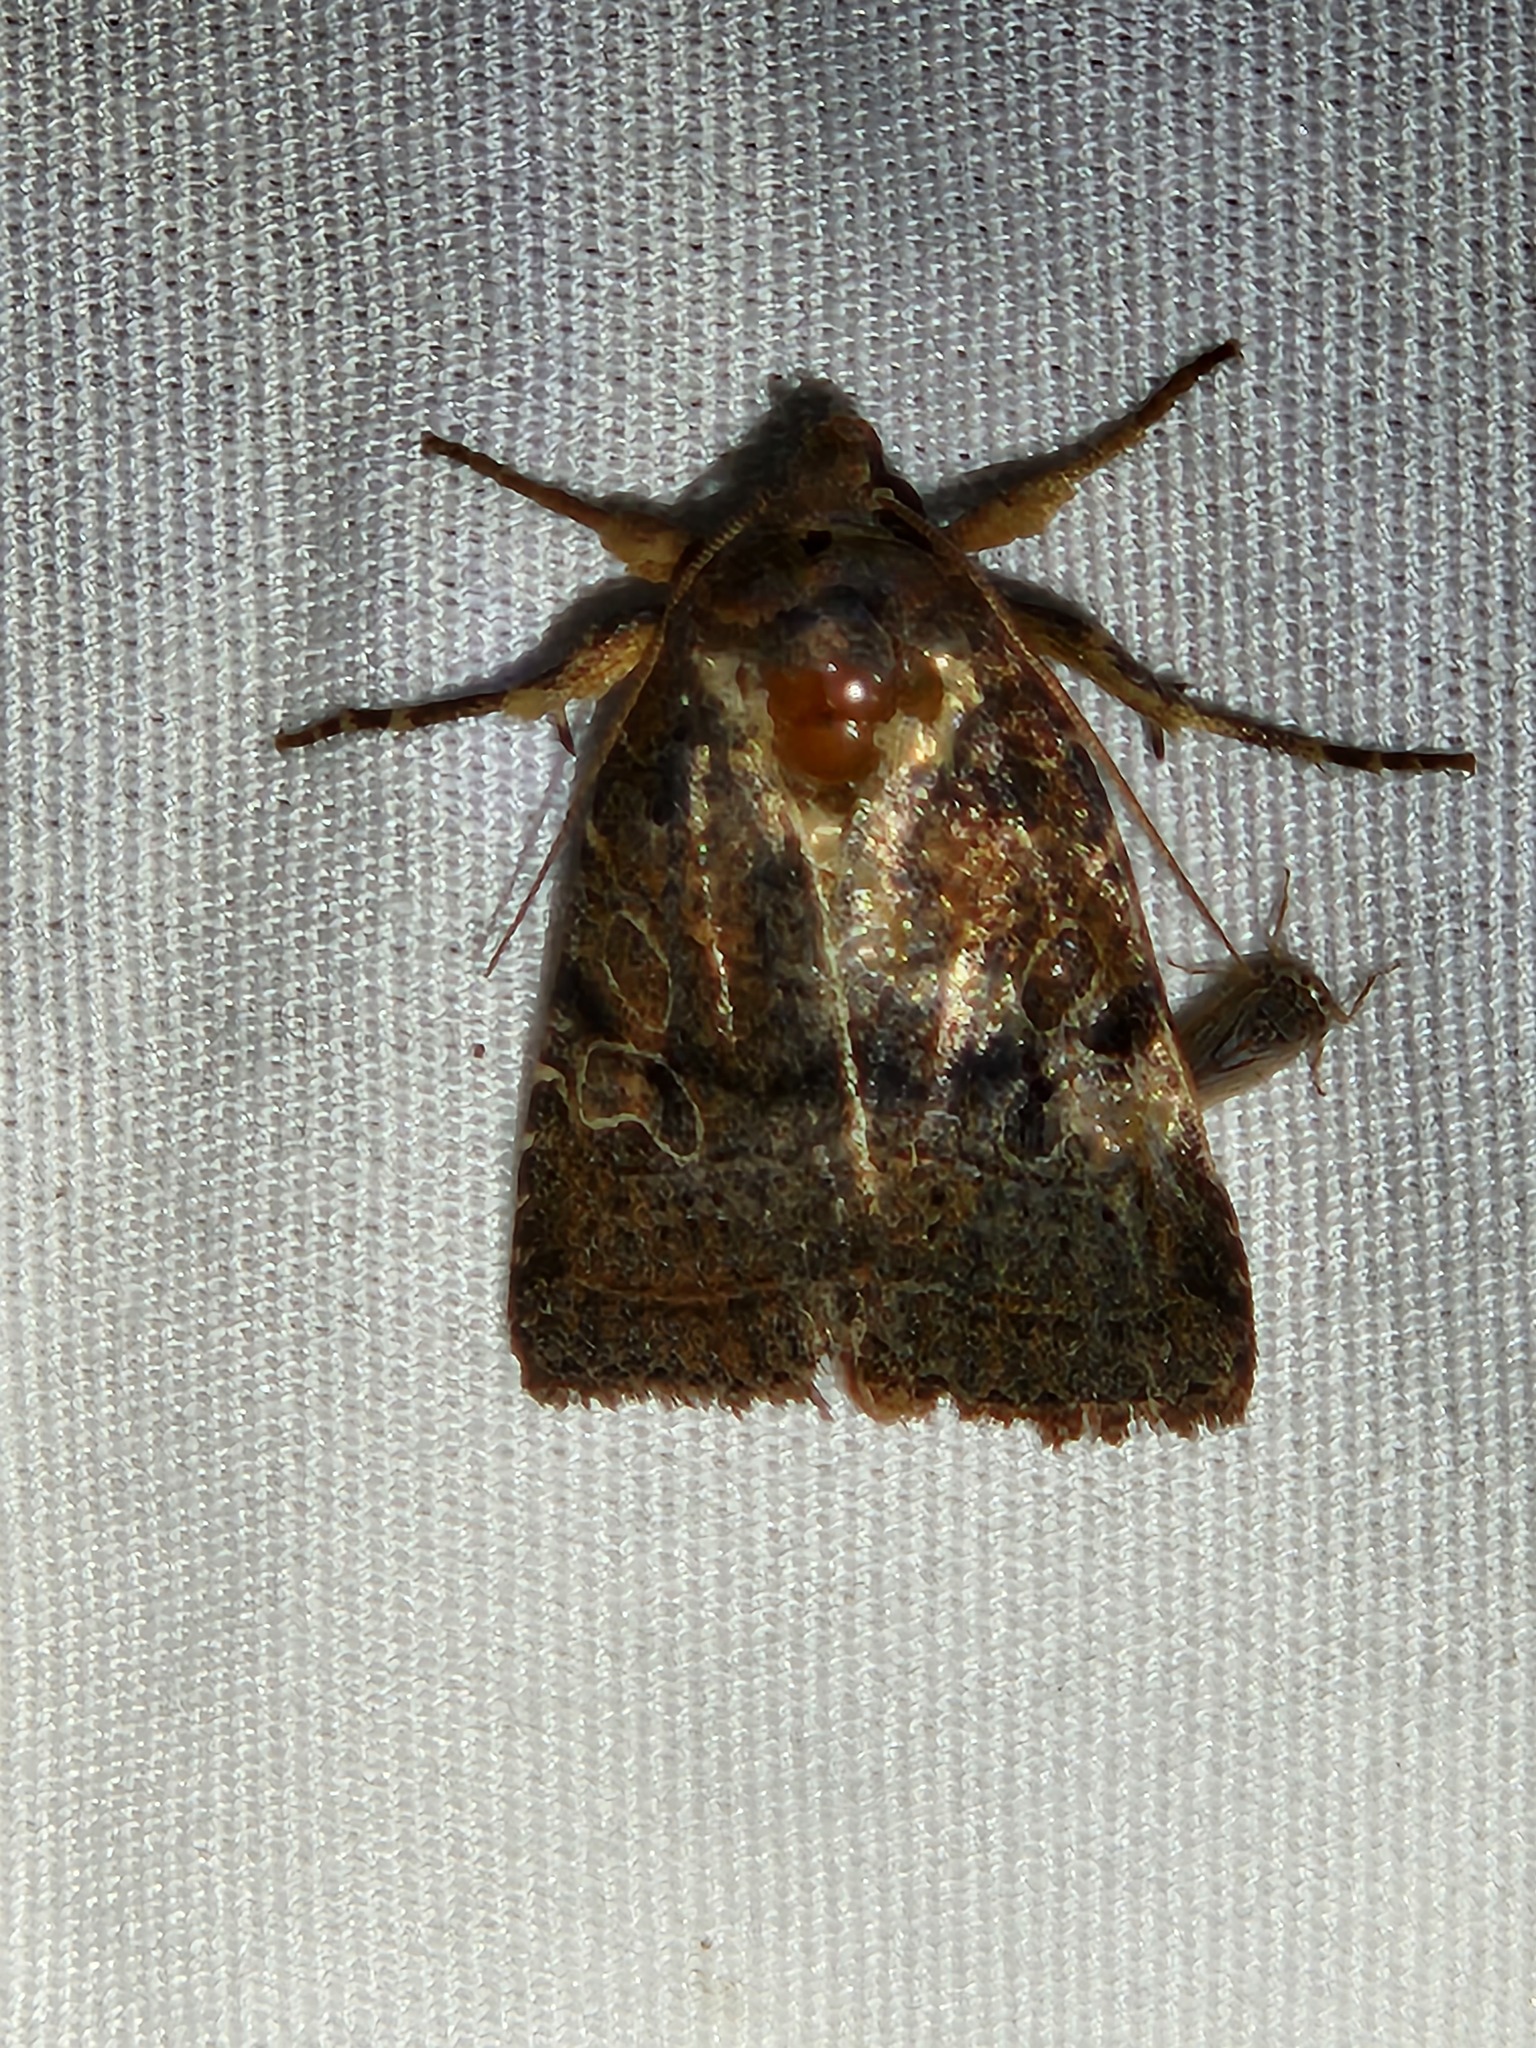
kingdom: Animalia
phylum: Arthropoda
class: Insecta
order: Lepidoptera
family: Noctuidae
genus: Orthodes
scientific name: Orthodes furtiva
